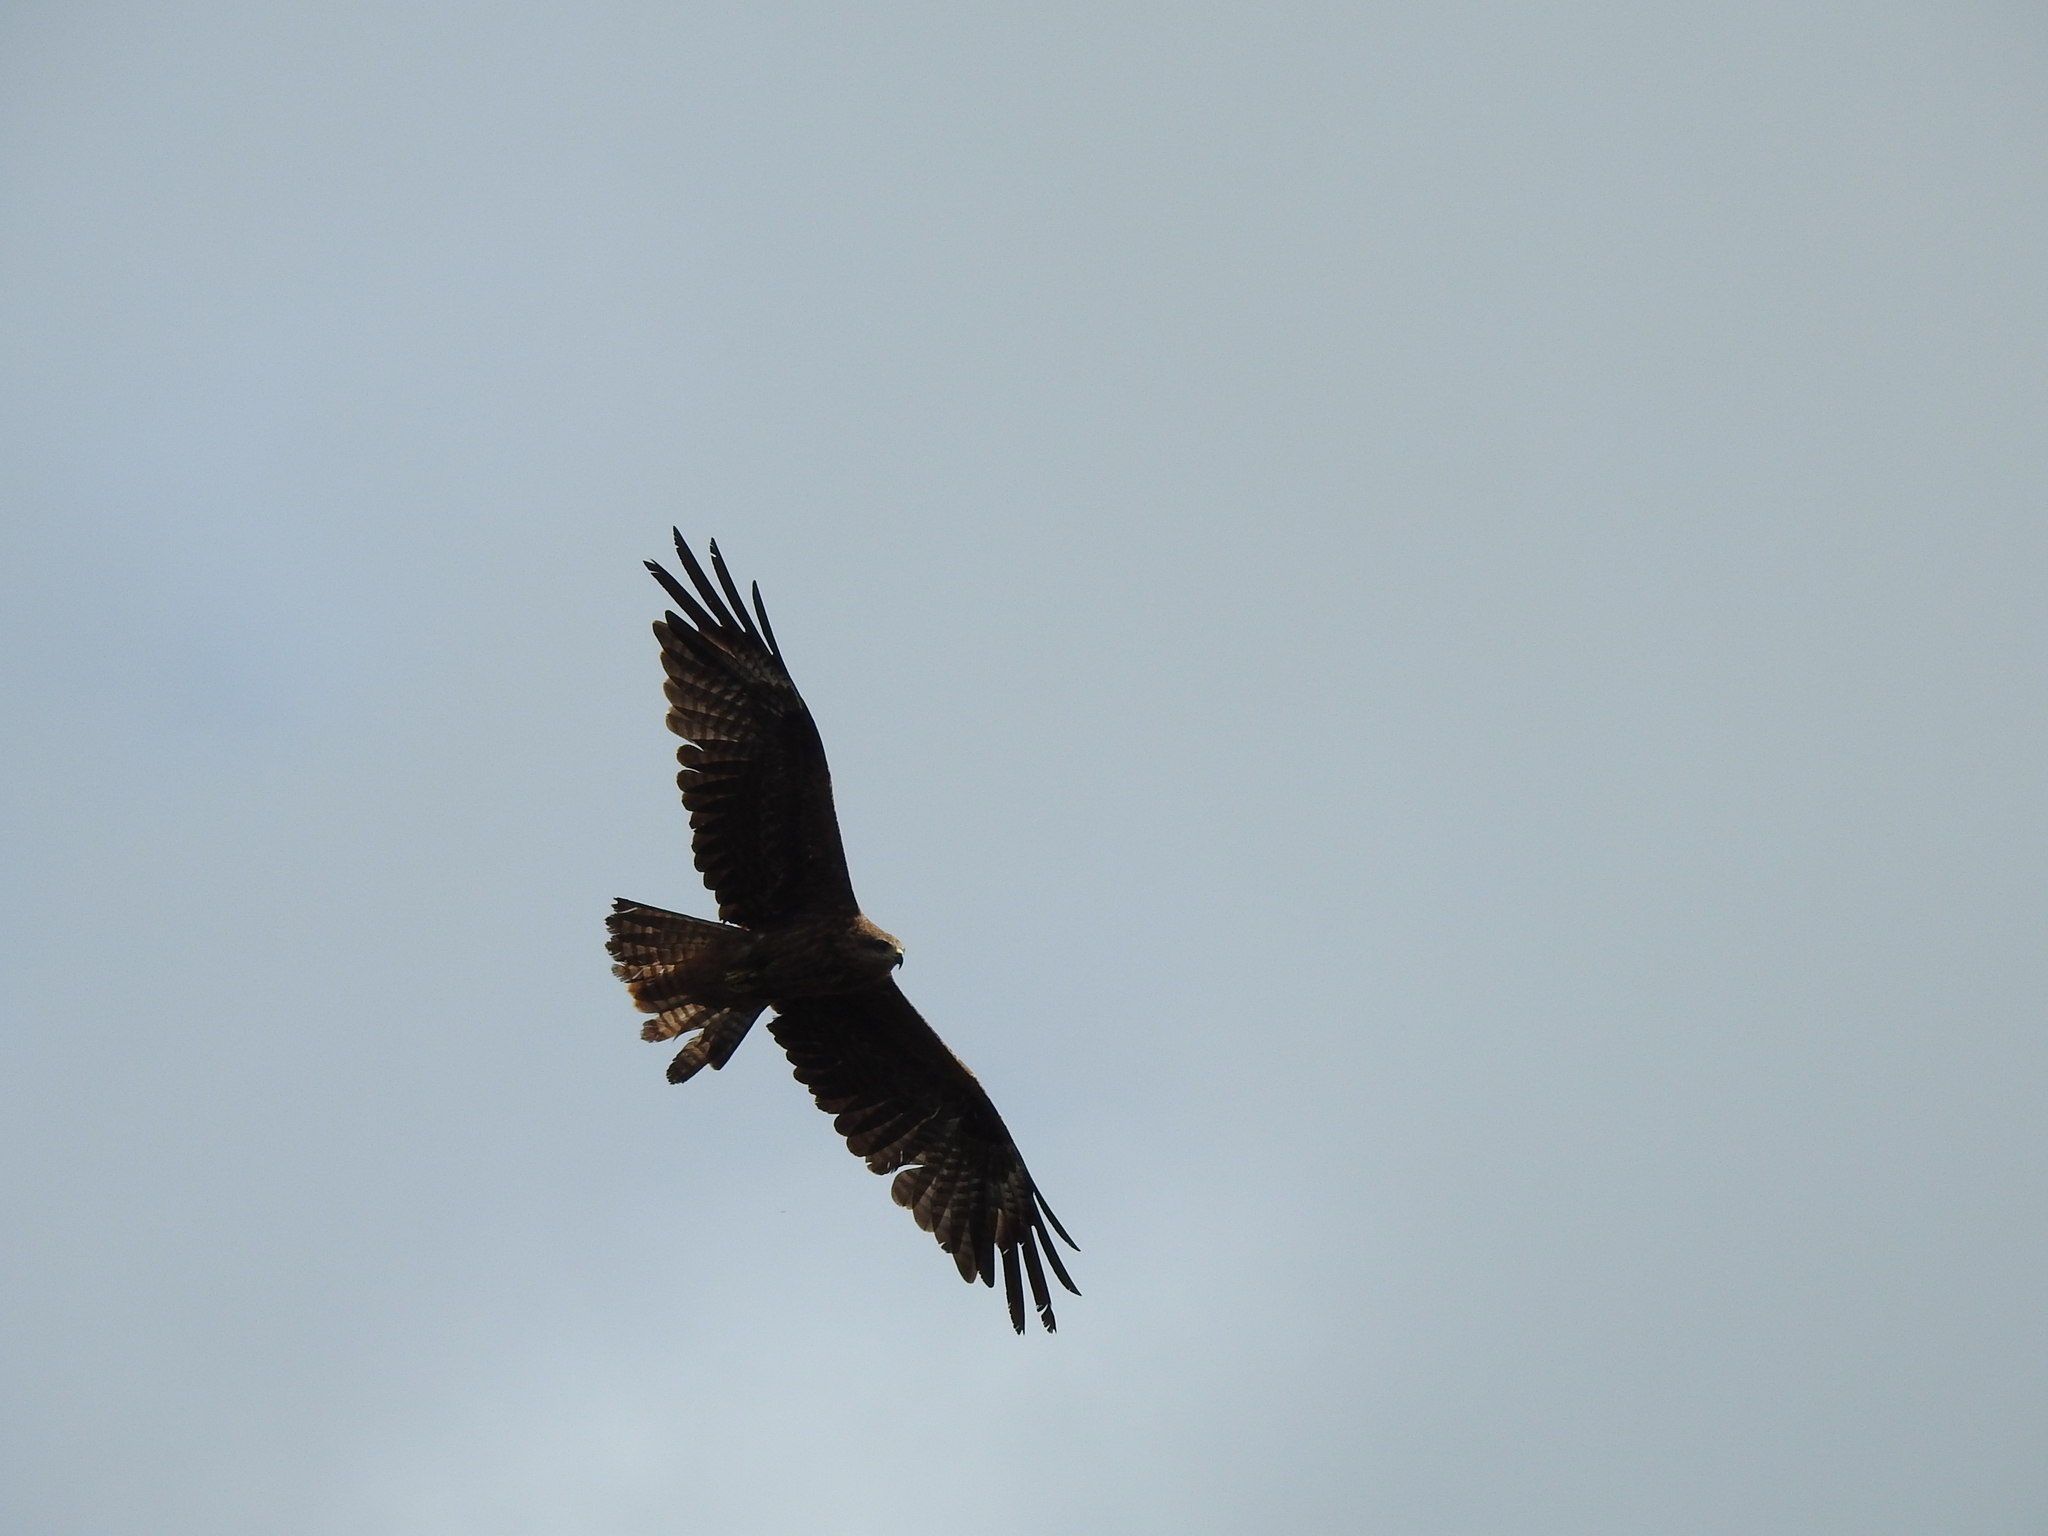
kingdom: Animalia
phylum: Chordata
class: Aves
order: Accipitriformes
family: Accipitridae
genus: Milvus
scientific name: Milvus migrans
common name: Black kite
